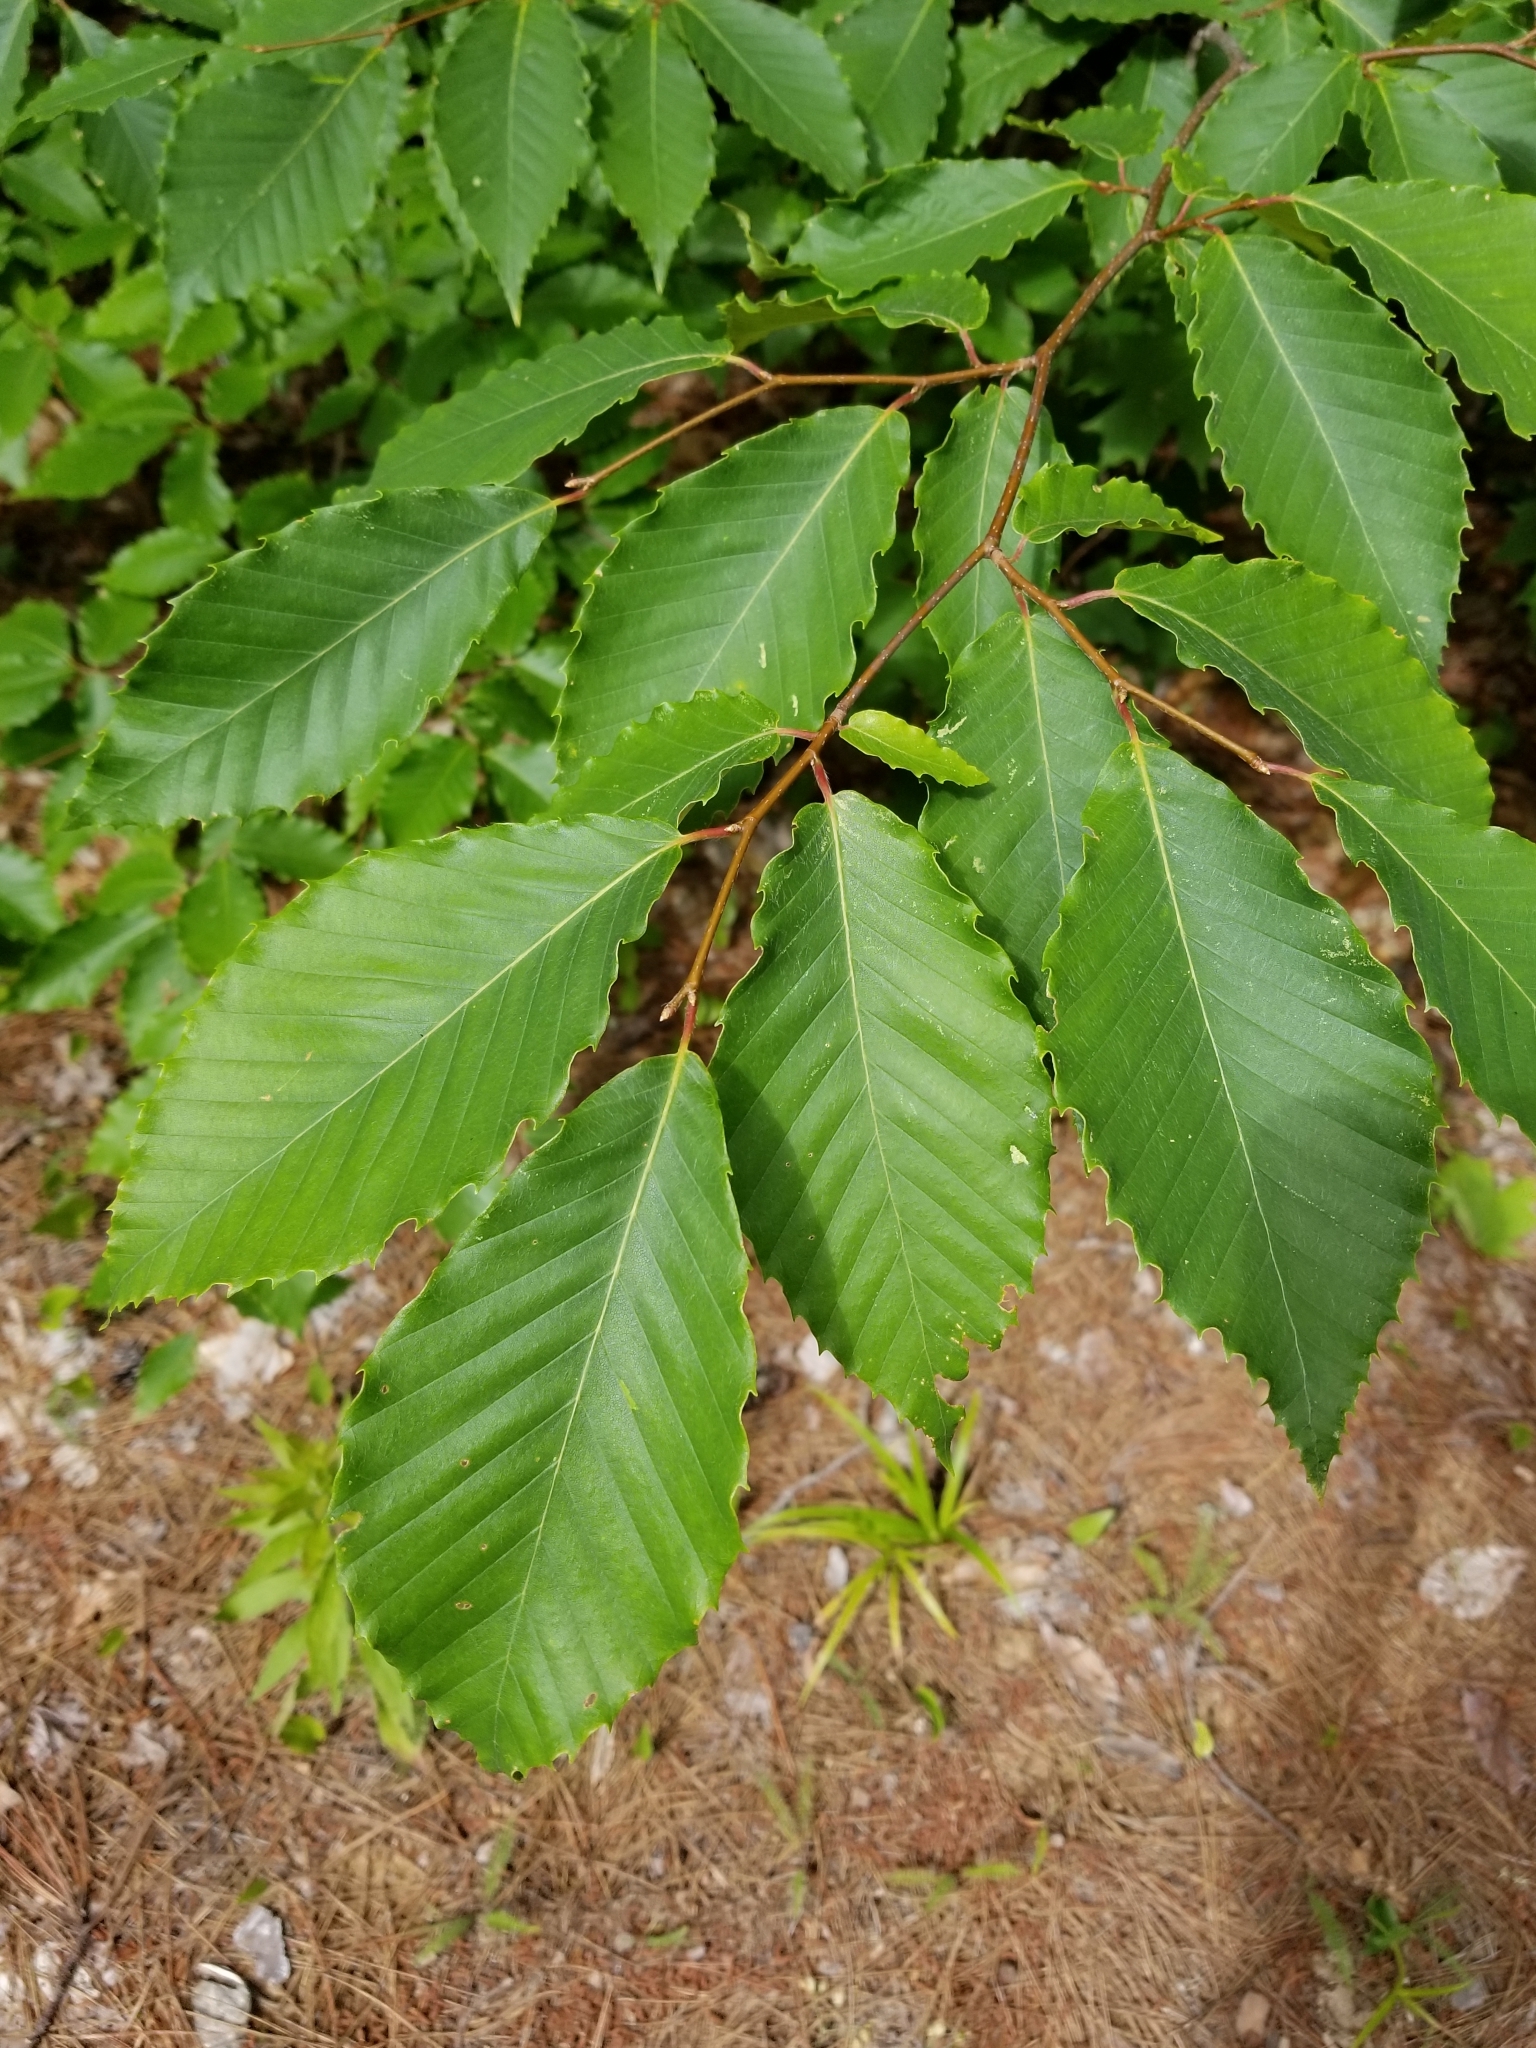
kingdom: Plantae
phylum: Tracheophyta
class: Magnoliopsida
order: Fagales
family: Fagaceae
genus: Fagus
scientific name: Fagus grandifolia
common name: American beech
